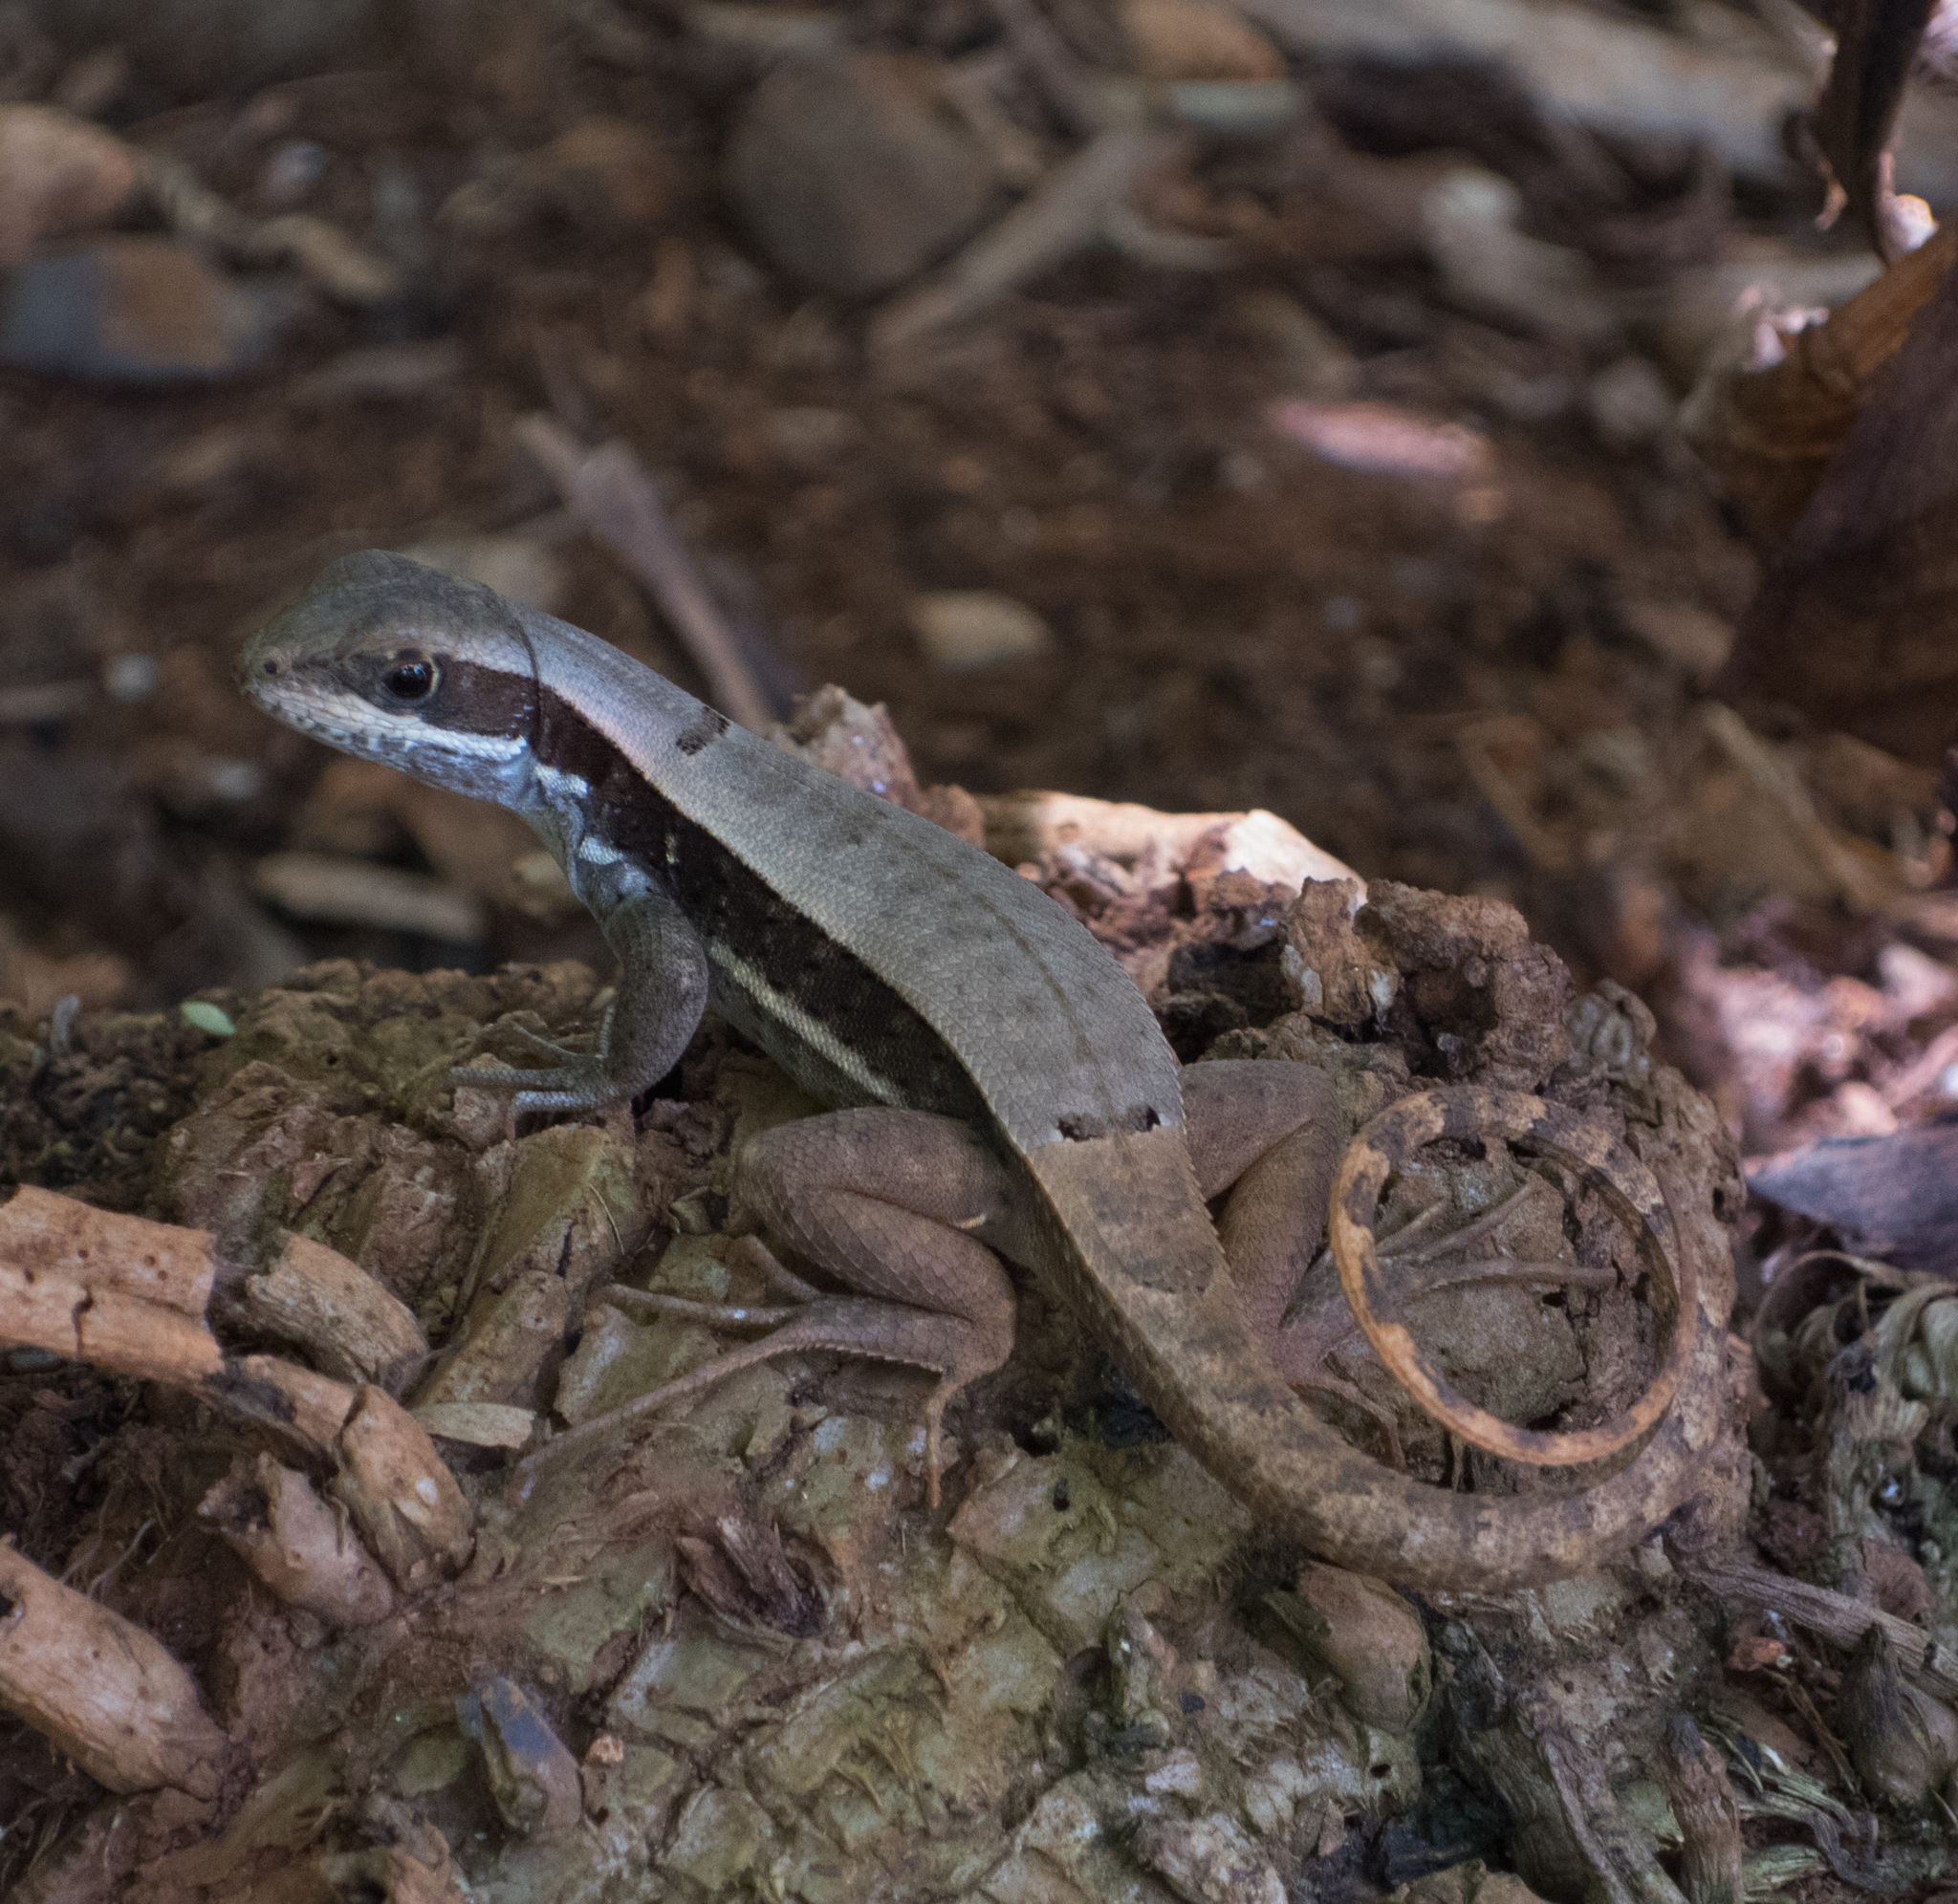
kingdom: Animalia
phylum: Chordata
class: Squamata
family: Leiocephalidae
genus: Leiocephalus
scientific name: Leiocephalus macropus
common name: Monte verde curlytail lizard
